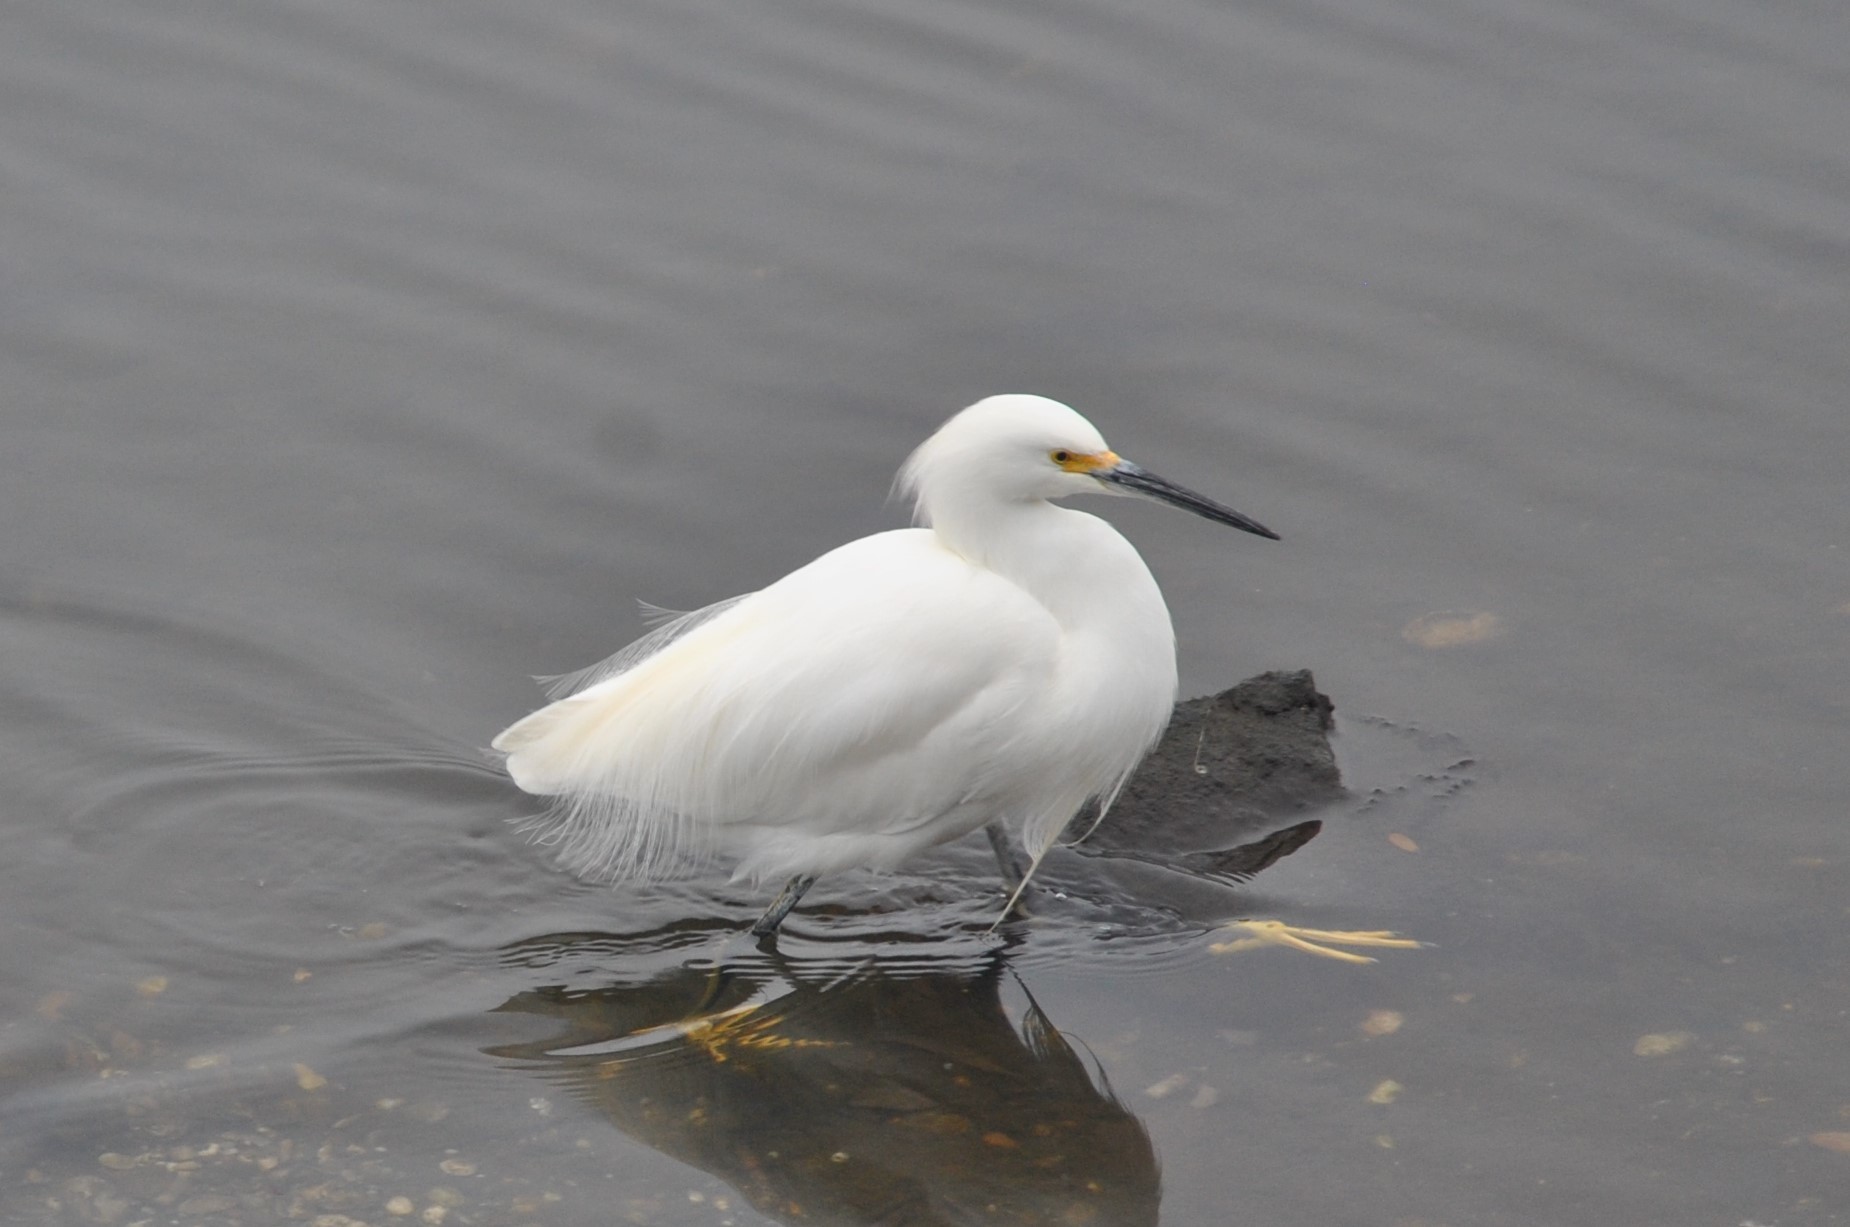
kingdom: Animalia
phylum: Chordata
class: Aves
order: Pelecaniformes
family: Ardeidae
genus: Egretta
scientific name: Egretta thula
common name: Snowy egret
